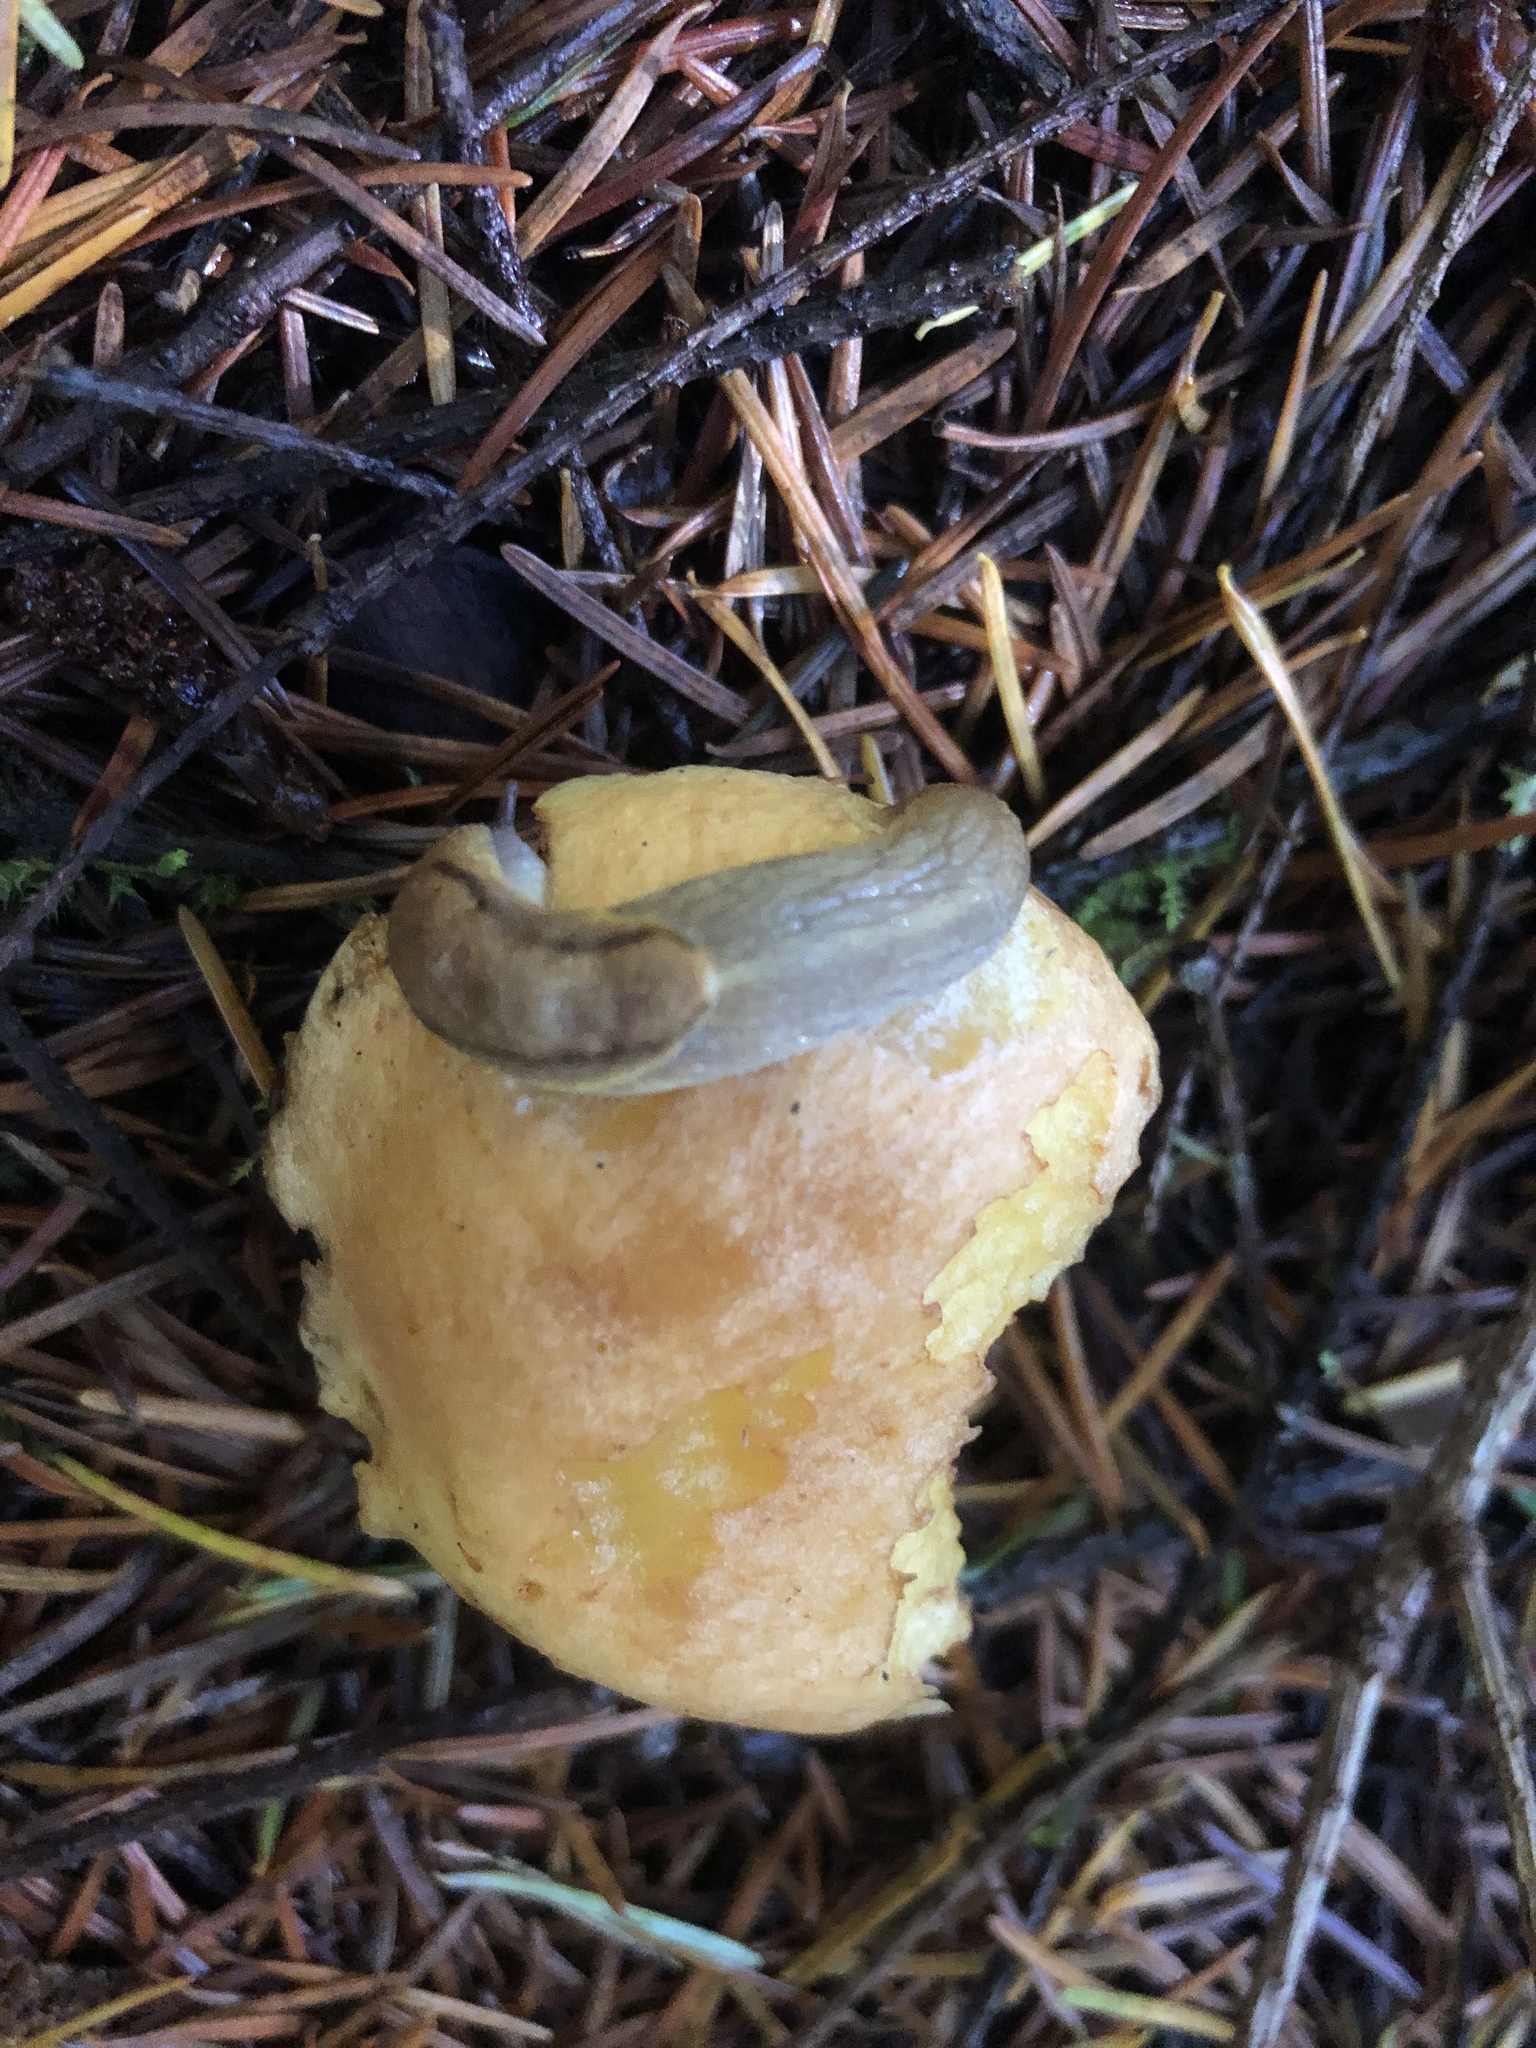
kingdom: Animalia
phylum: Mollusca
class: Gastropoda
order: Stylommatophora
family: Ariolimacidae
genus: Prophysaon
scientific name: Prophysaon foliolatum
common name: Yellow-bordered taildropper
